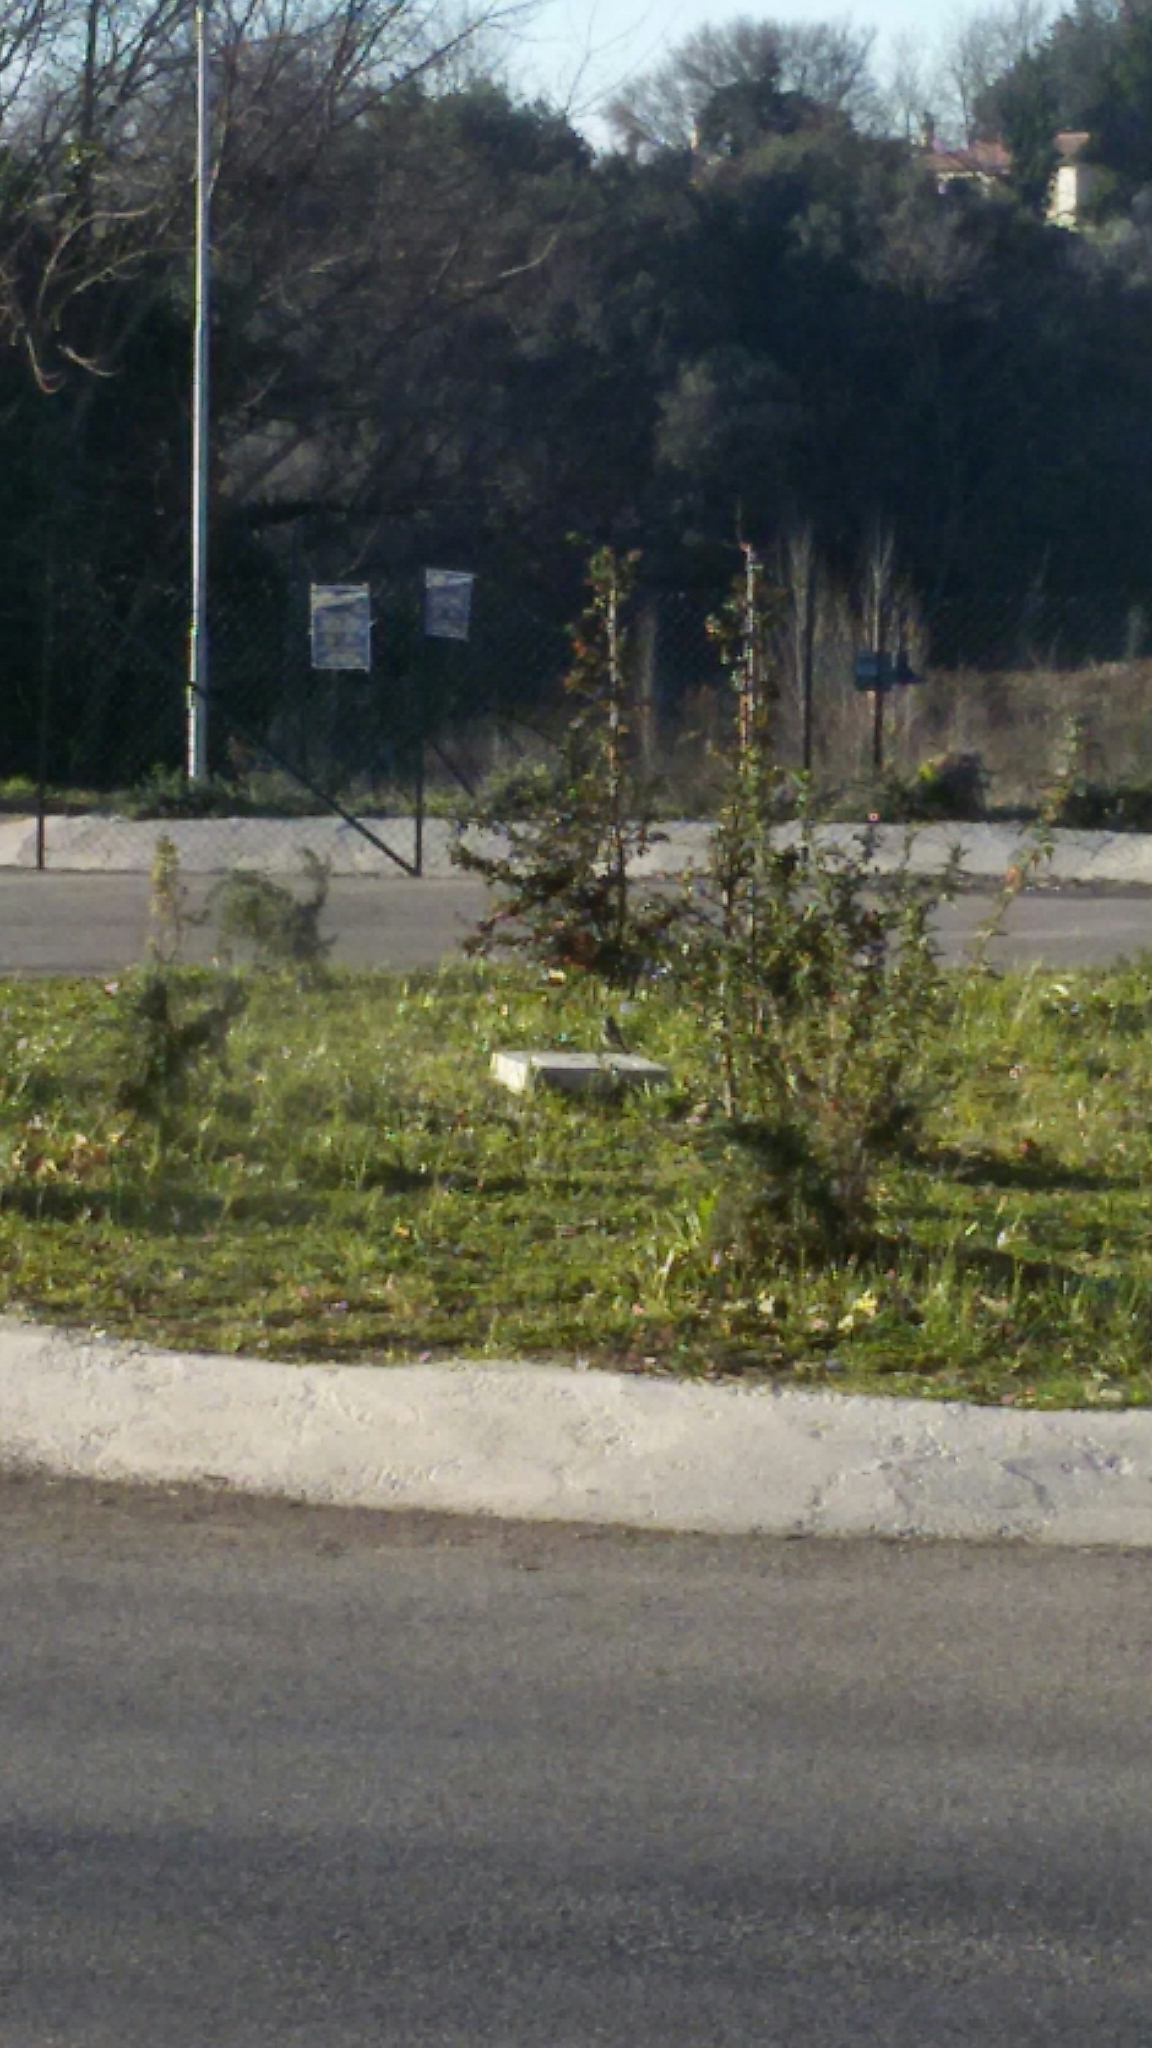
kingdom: Animalia
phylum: Chordata
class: Aves
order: Passeriformes
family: Muscicapidae
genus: Phoenicurus
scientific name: Phoenicurus ochruros
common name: Black redstart
